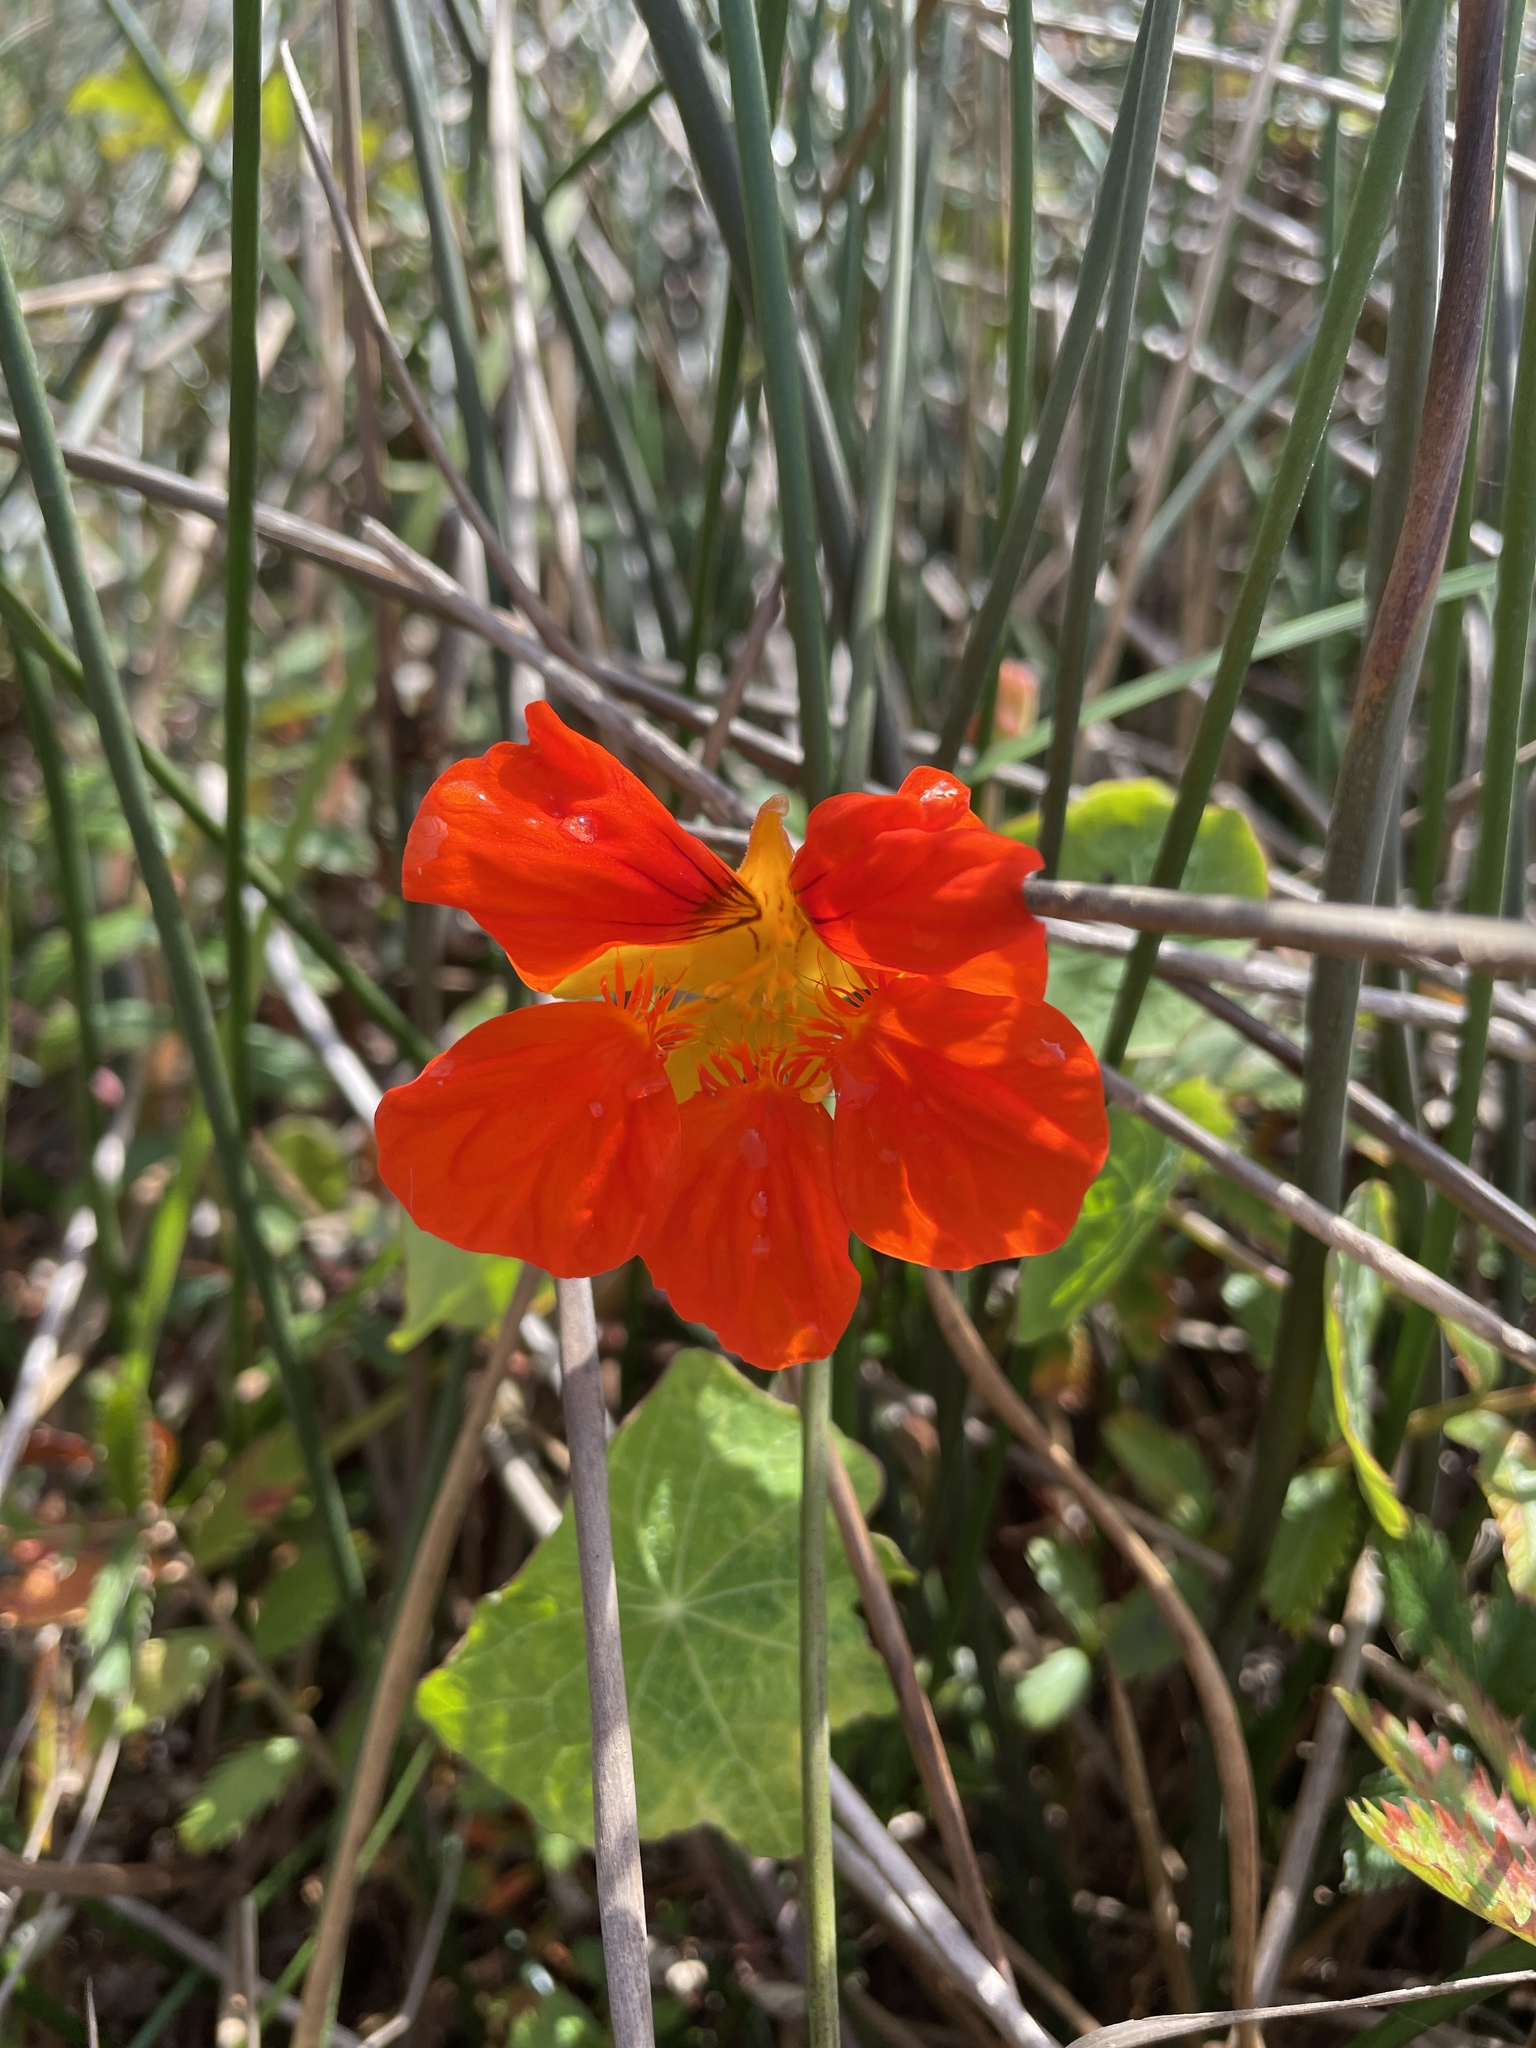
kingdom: Plantae
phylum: Tracheophyta
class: Magnoliopsida
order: Brassicales
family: Tropaeolaceae
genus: Tropaeolum
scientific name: Tropaeolum majus
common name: Nasturtium
